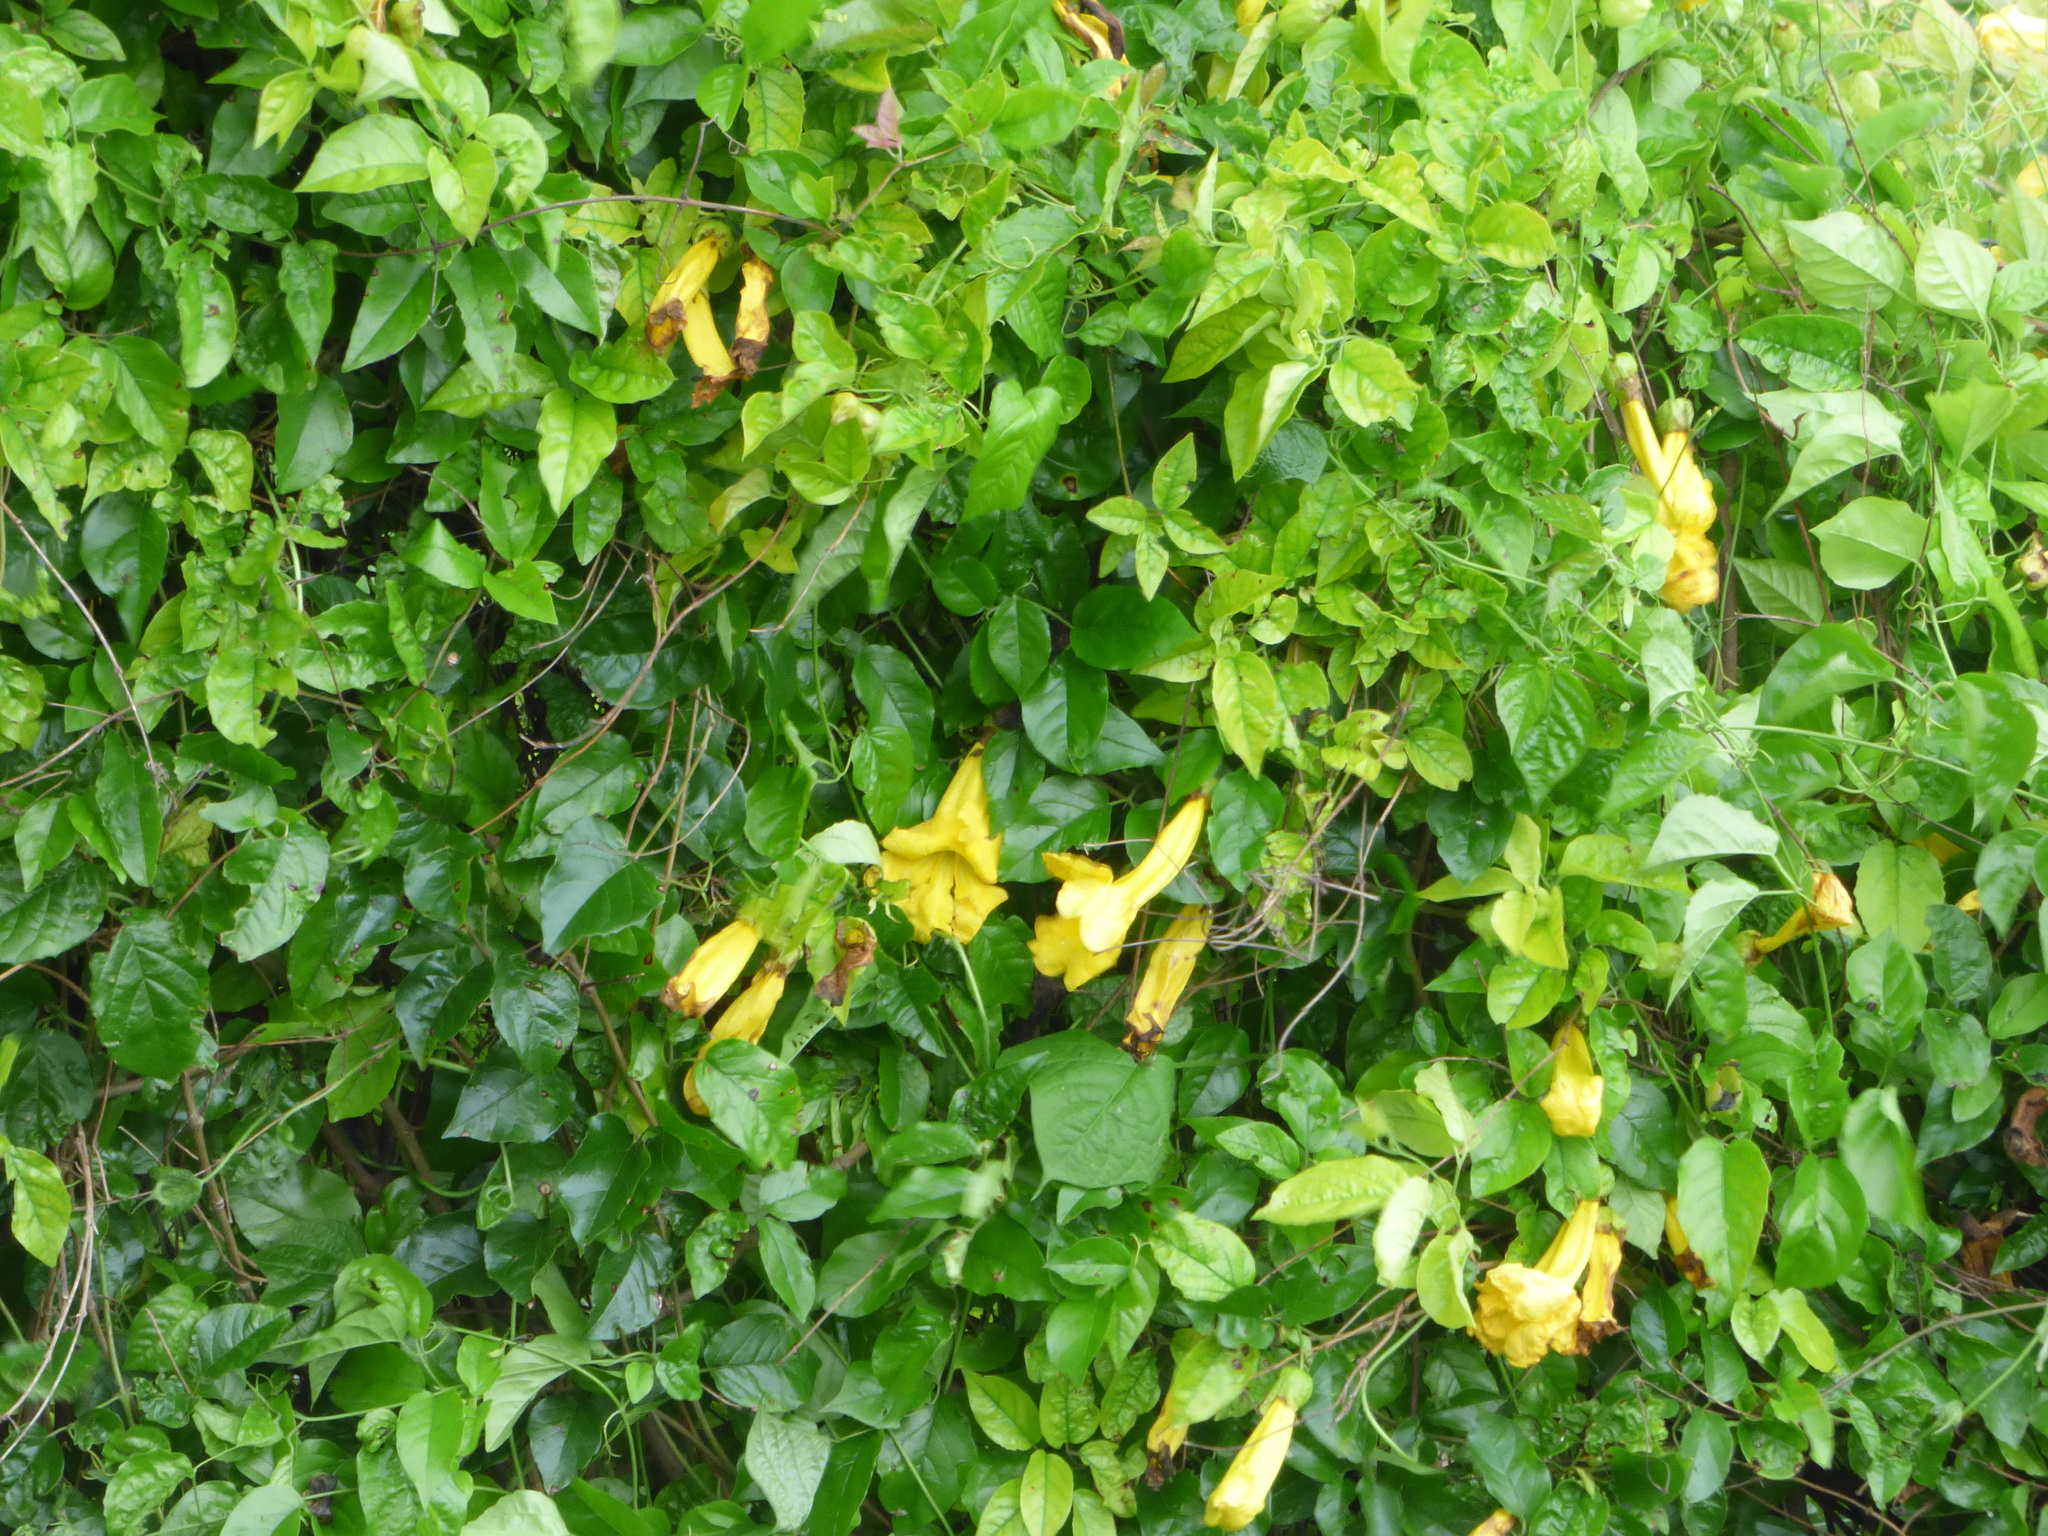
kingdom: Plantae
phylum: Tracheophyta
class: Magnoliopsida
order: Lamiales
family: Bignoniaceae
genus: Dolichandra
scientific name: Dolichandra unguis-cati
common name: Catclaw vine
